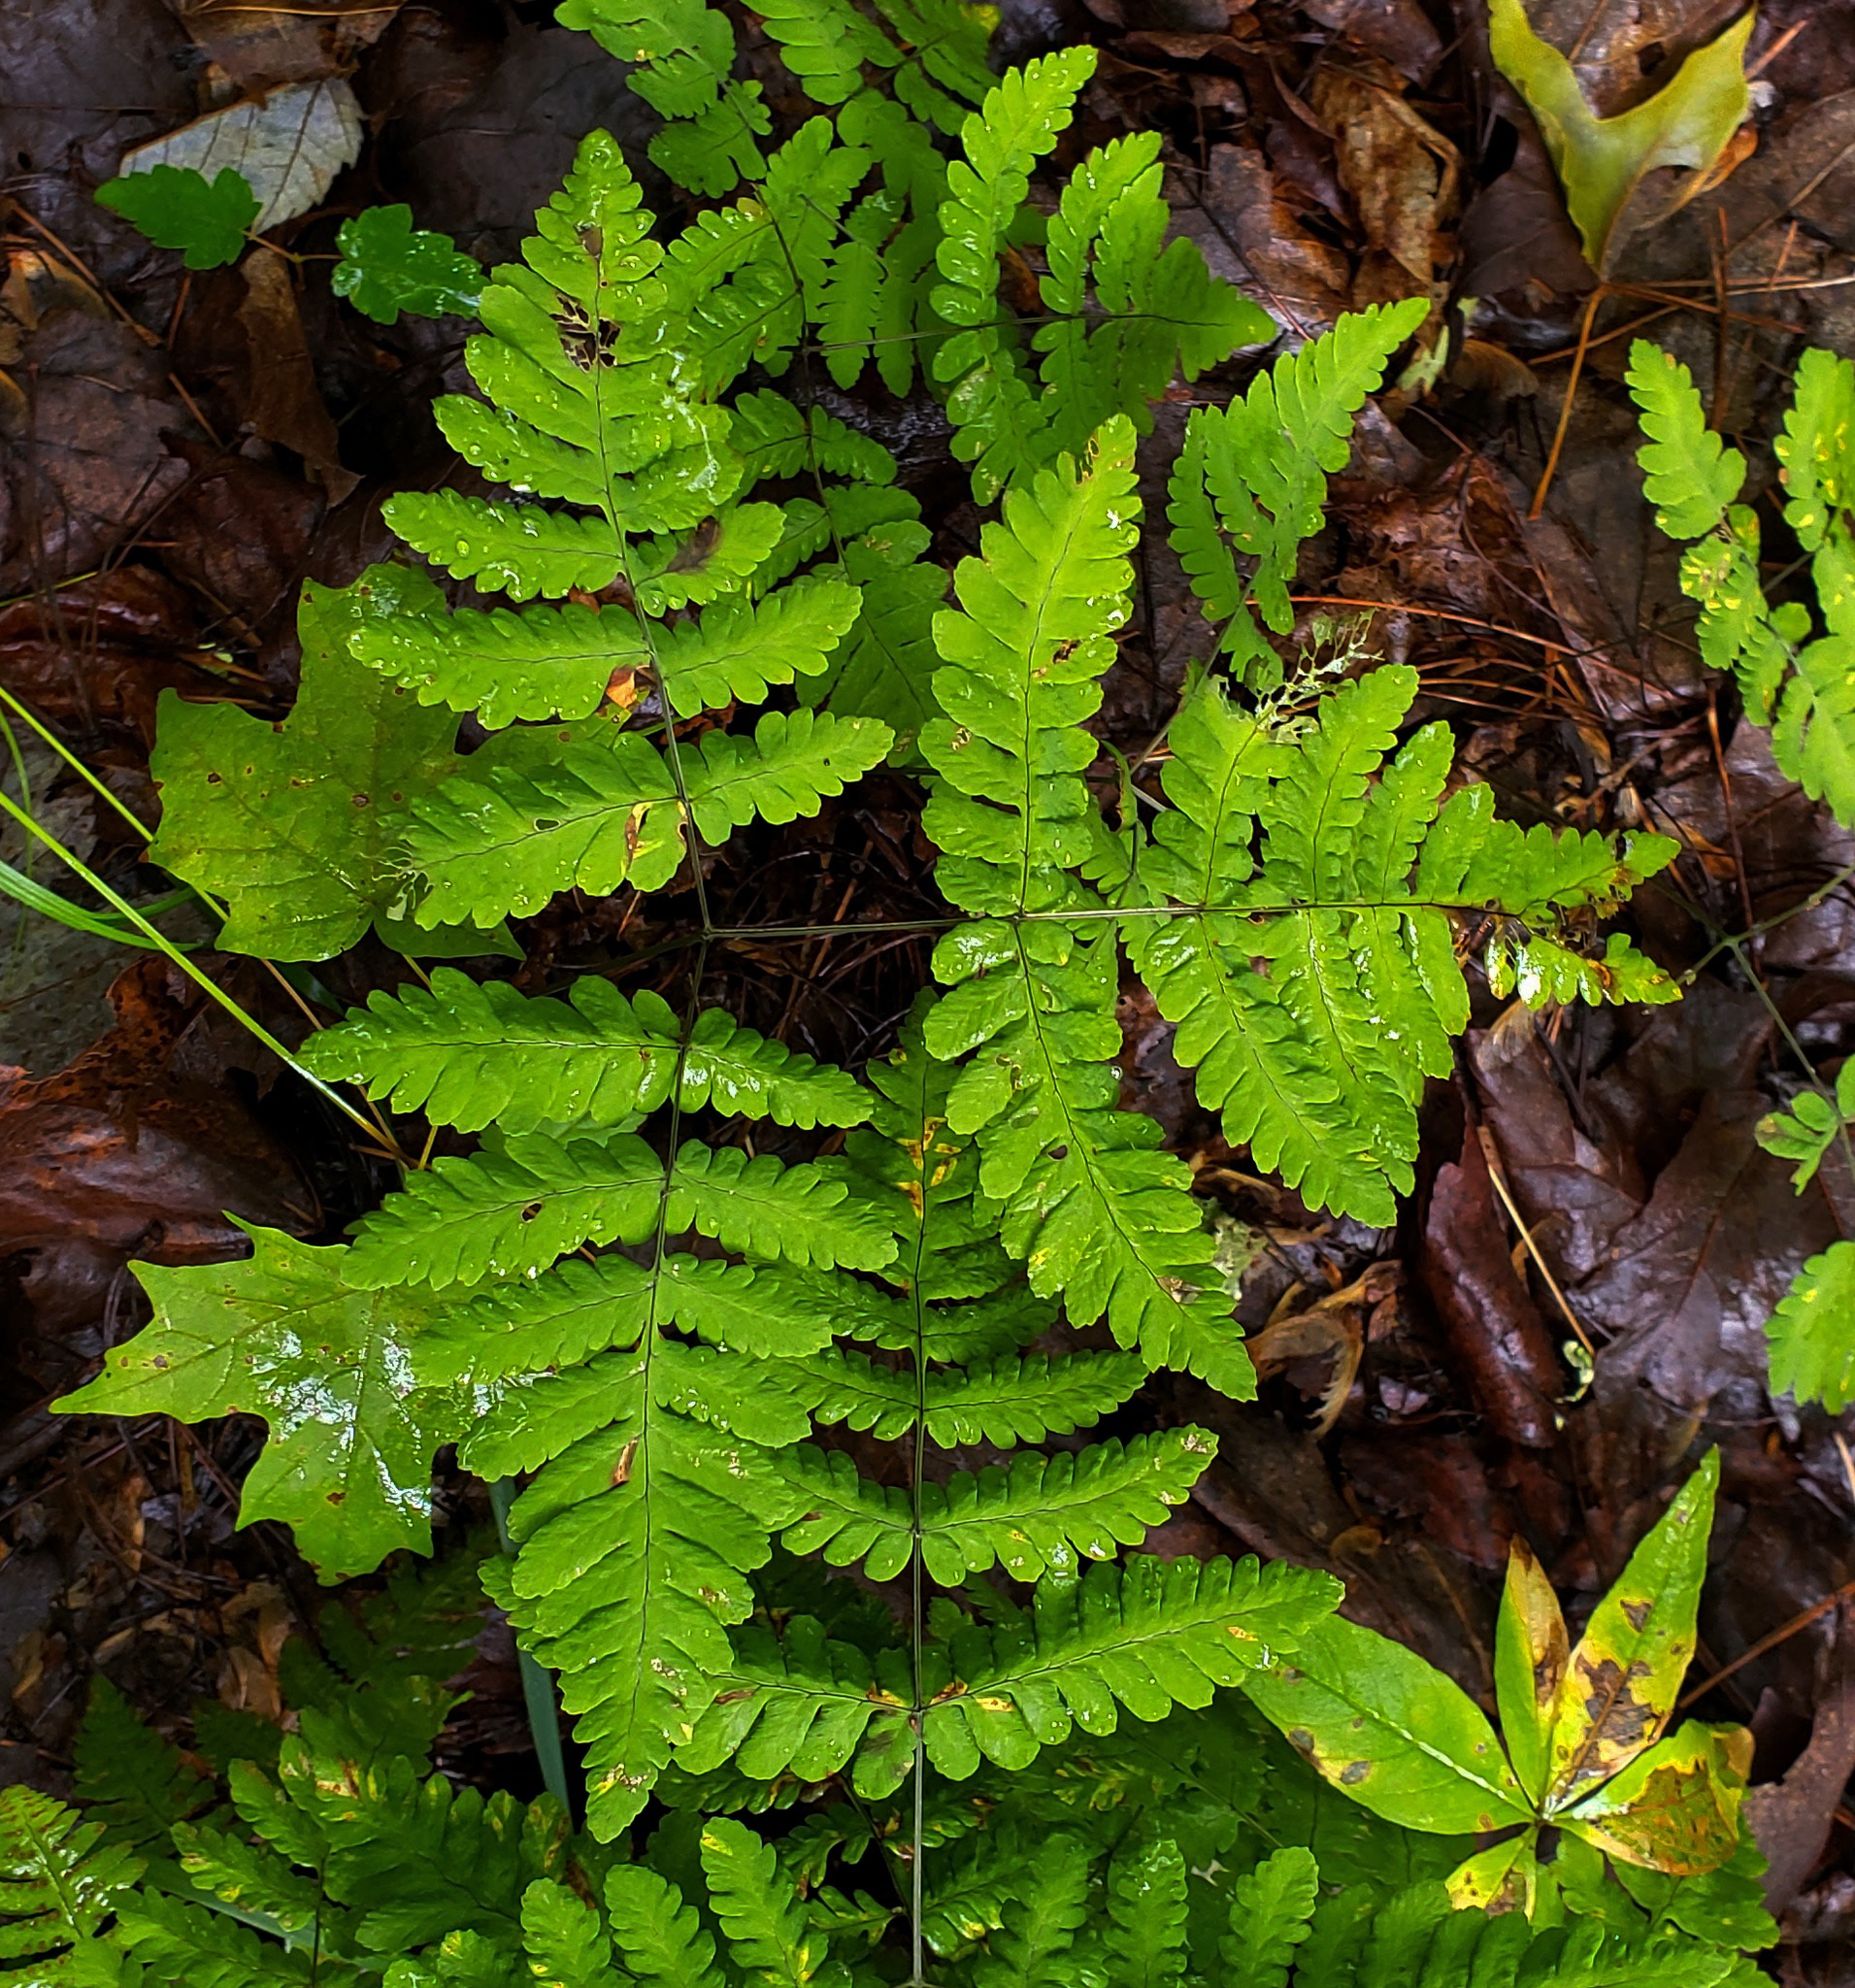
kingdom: Plantae
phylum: Tracheophyta
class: Polypodiopsida
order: Polypodiales
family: Cystopteridaceae
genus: Gymnocarpium
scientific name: Gymnocarpium dryopteris
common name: Oak fern
